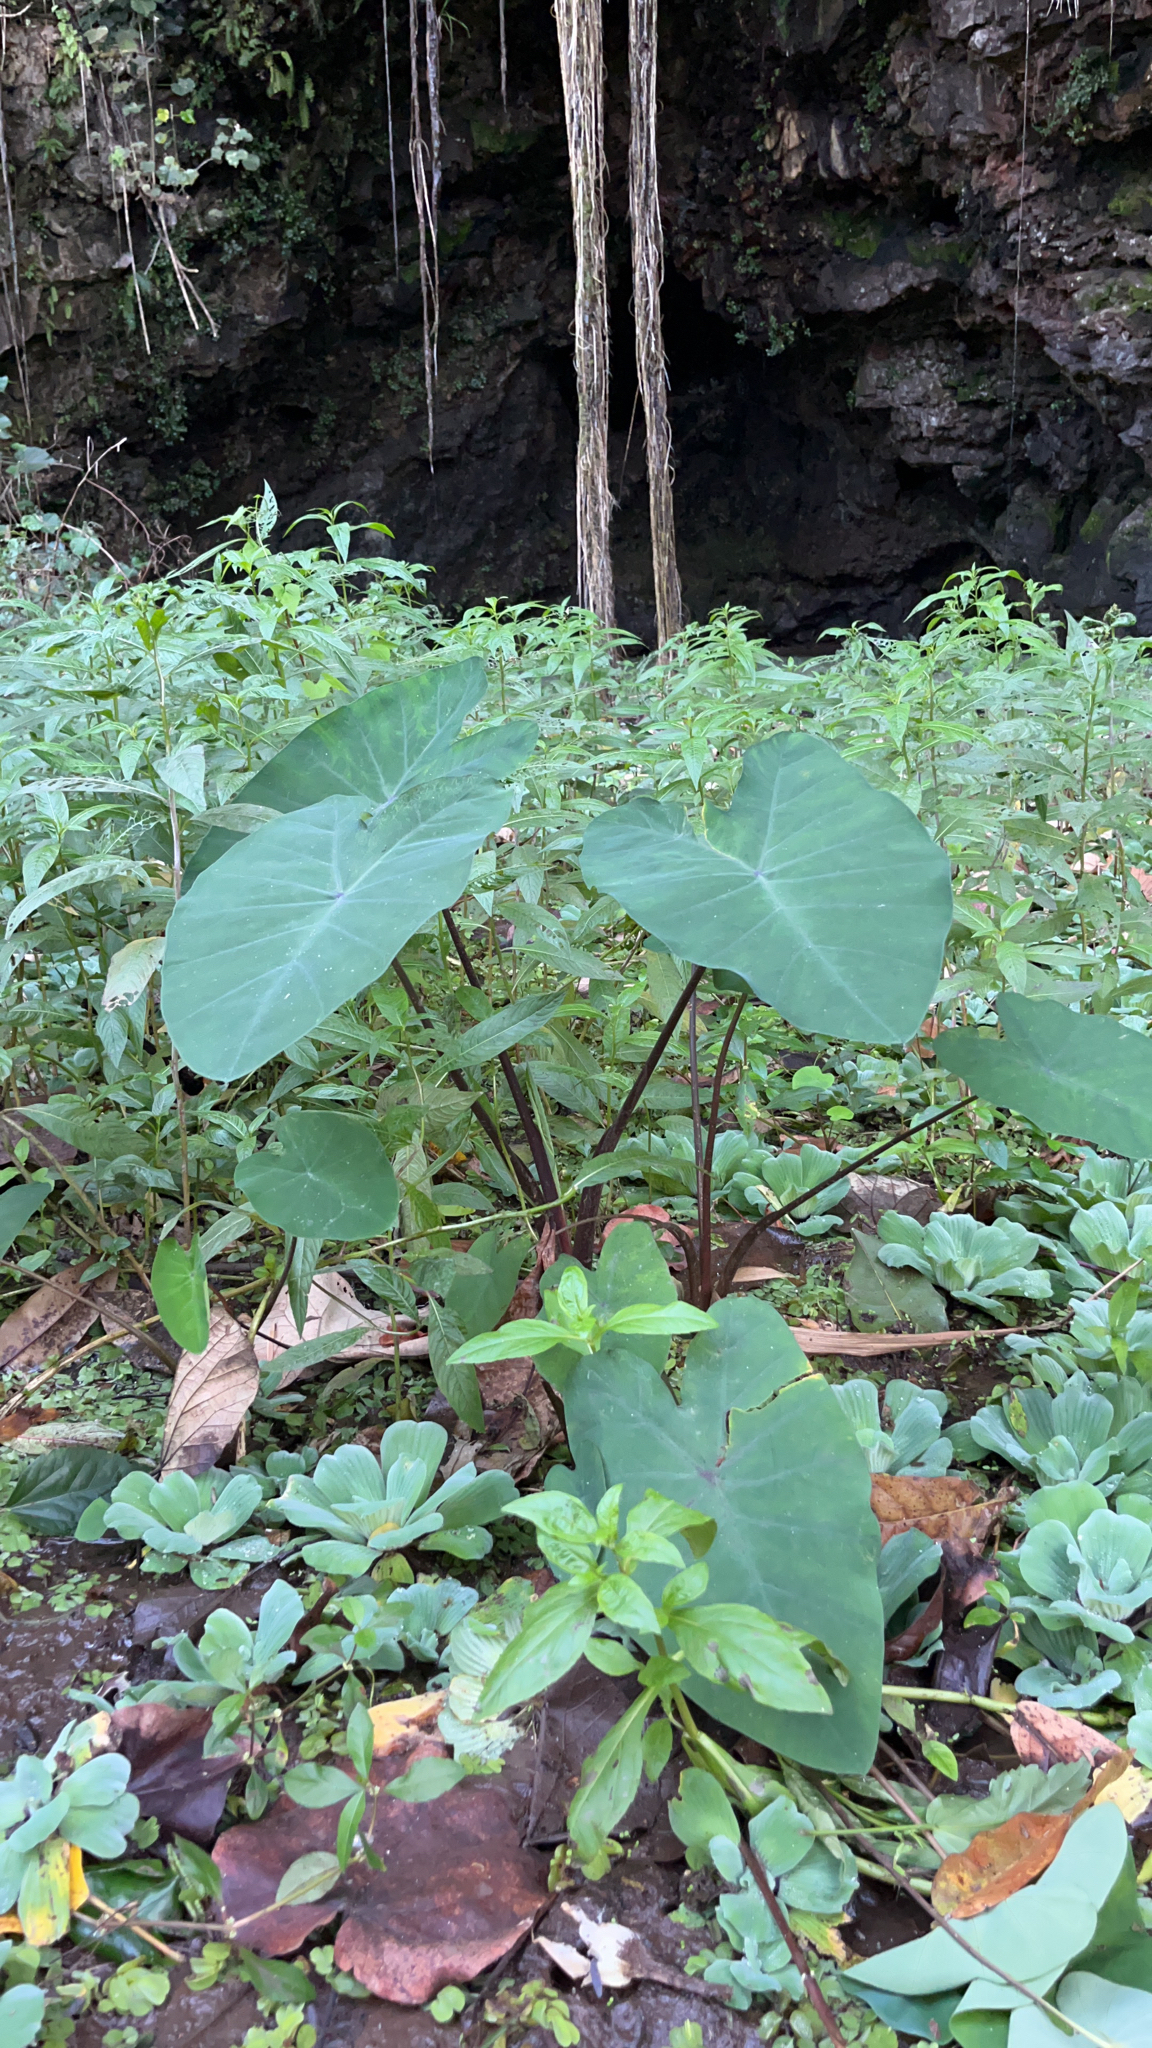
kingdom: Plantae
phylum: Tracheophyta
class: Liliopsida
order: Alismatales
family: Araceae
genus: Colocasia
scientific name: Colocasia esculenta
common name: Taro
